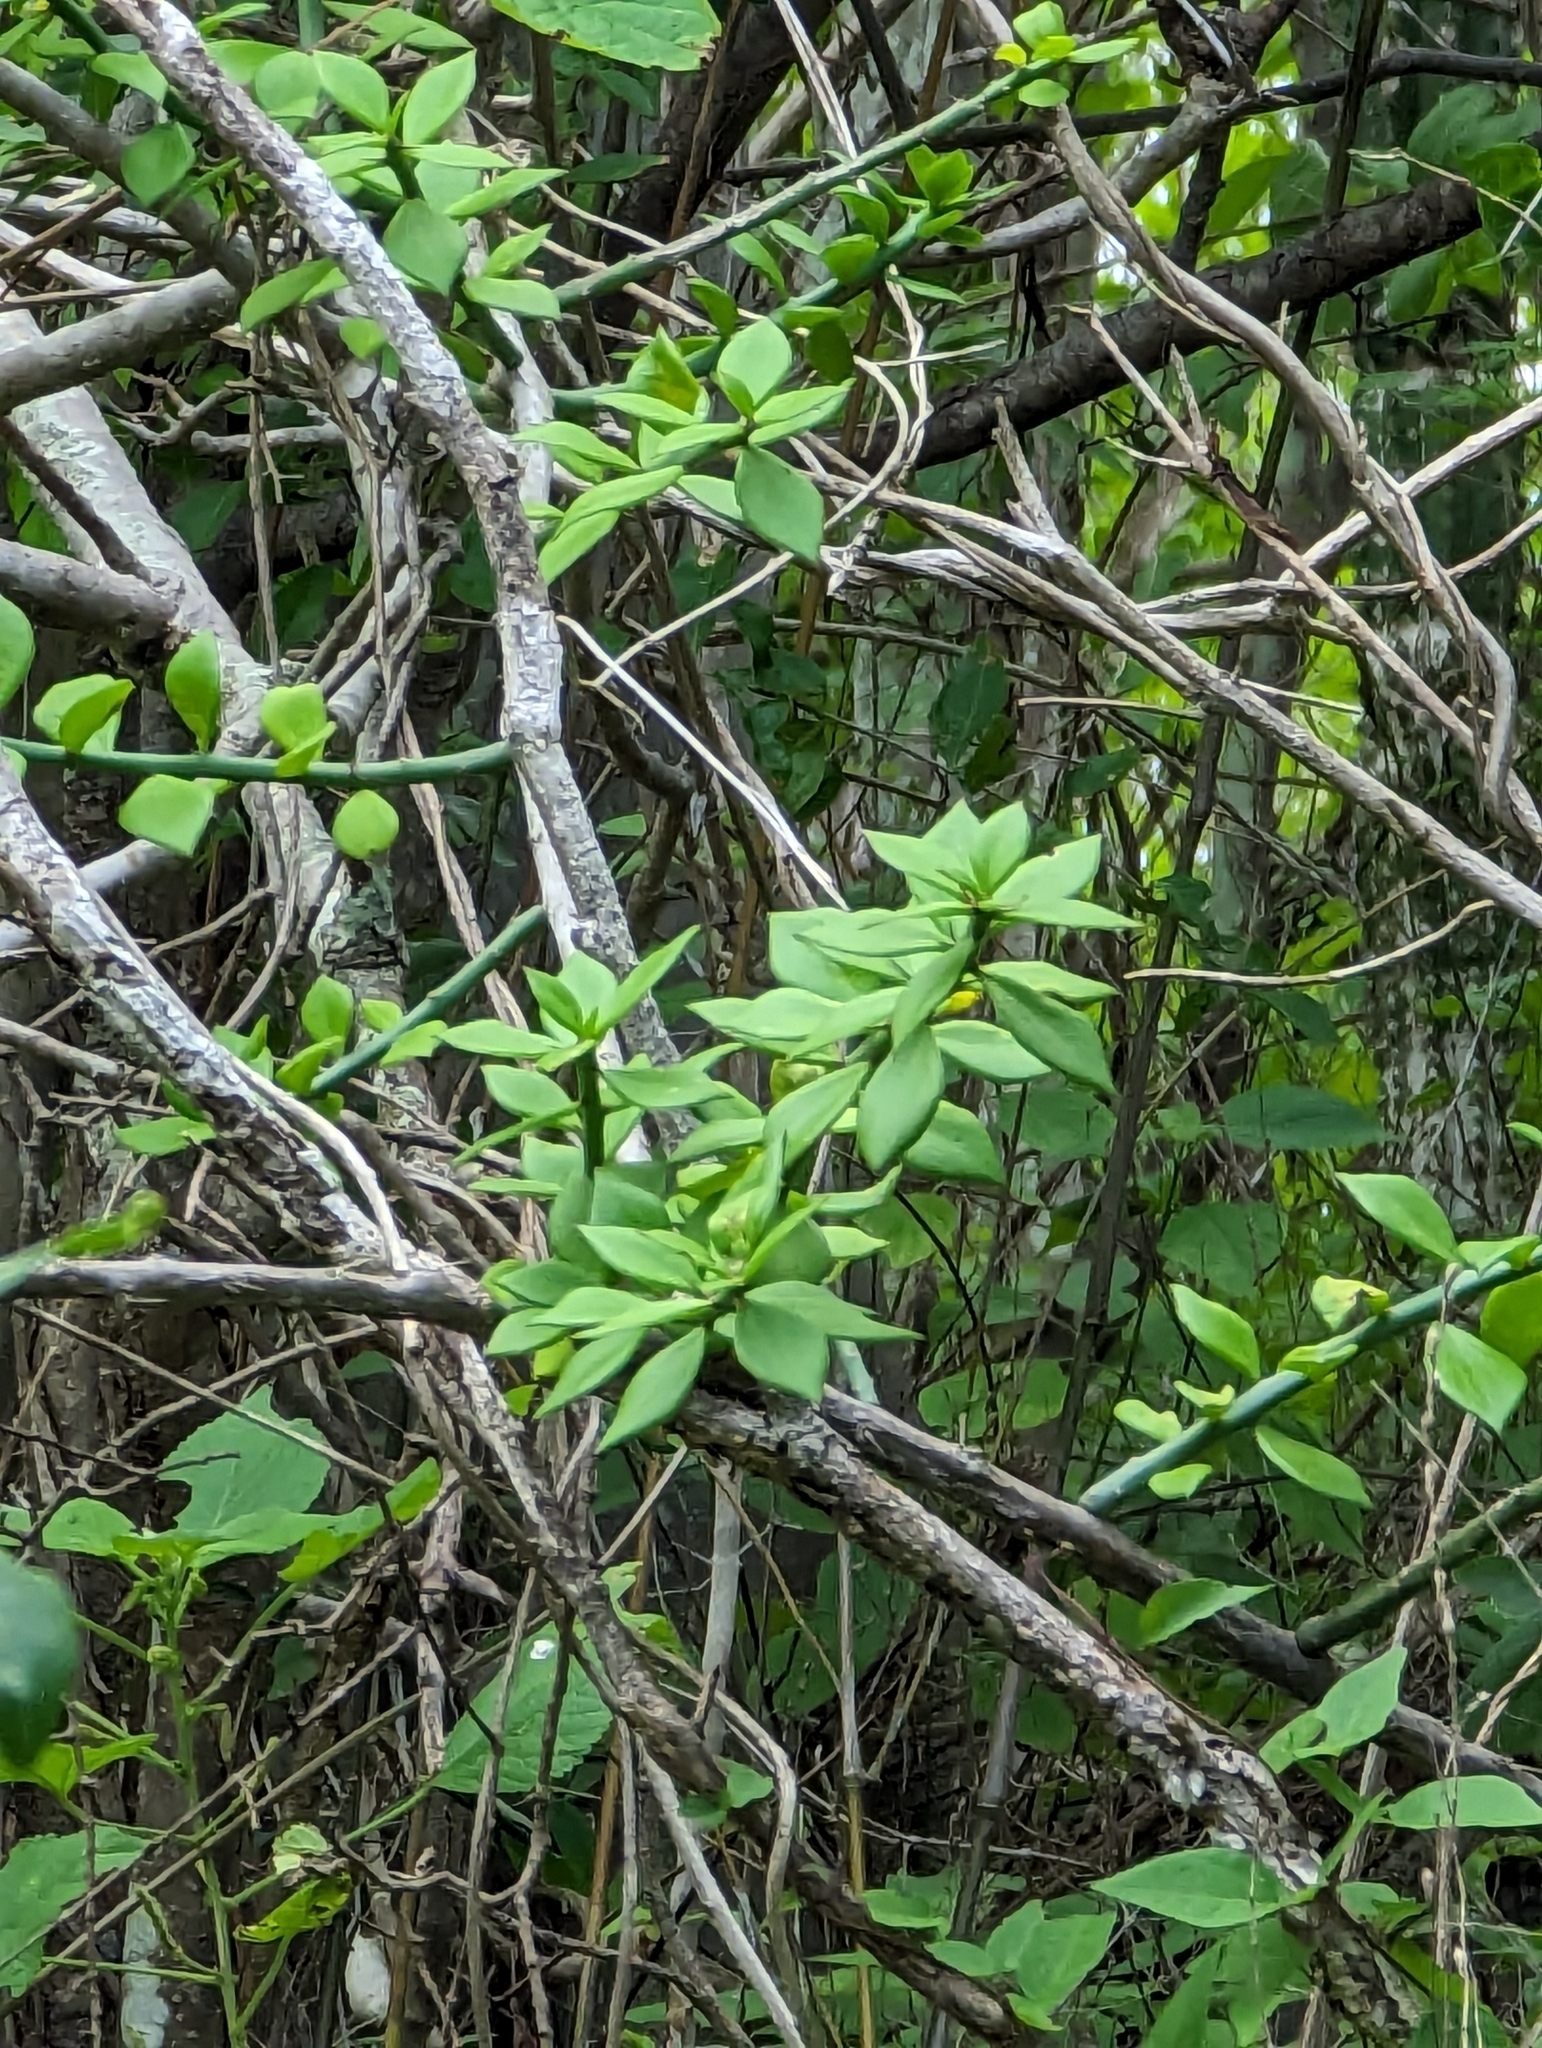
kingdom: Plantae
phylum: Tracheophyta
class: Magnoliopsida
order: Caryophyllales
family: Cactaceae
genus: Pereskiopsis
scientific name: Pereskiopsis porteri
